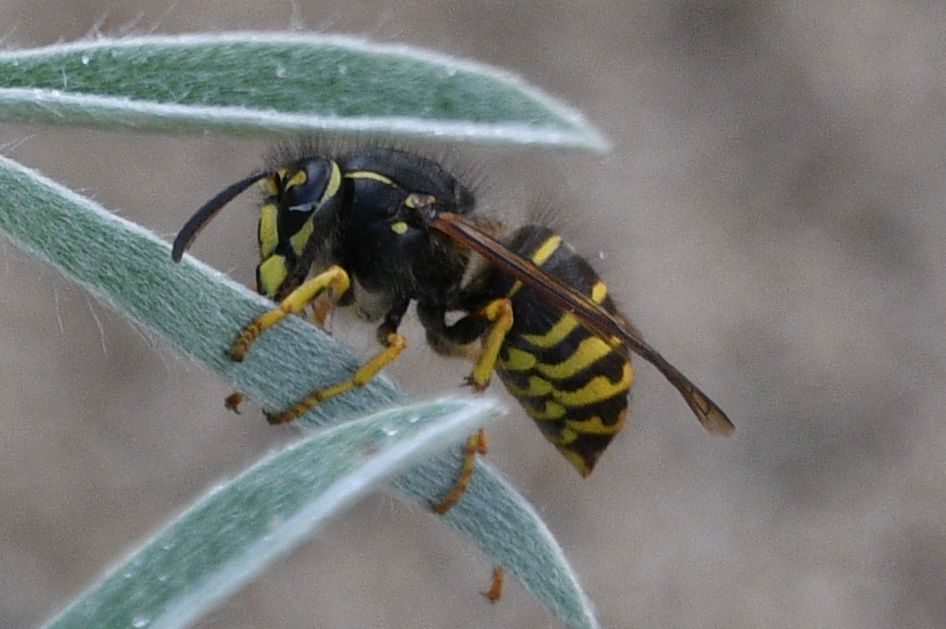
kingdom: Animalia
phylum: Arthropoda
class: Insecta
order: Hymenoptera
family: Vespidae
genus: Dolichovespula
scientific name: Dolichovespula arenaria
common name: Aerial yellowjacket
